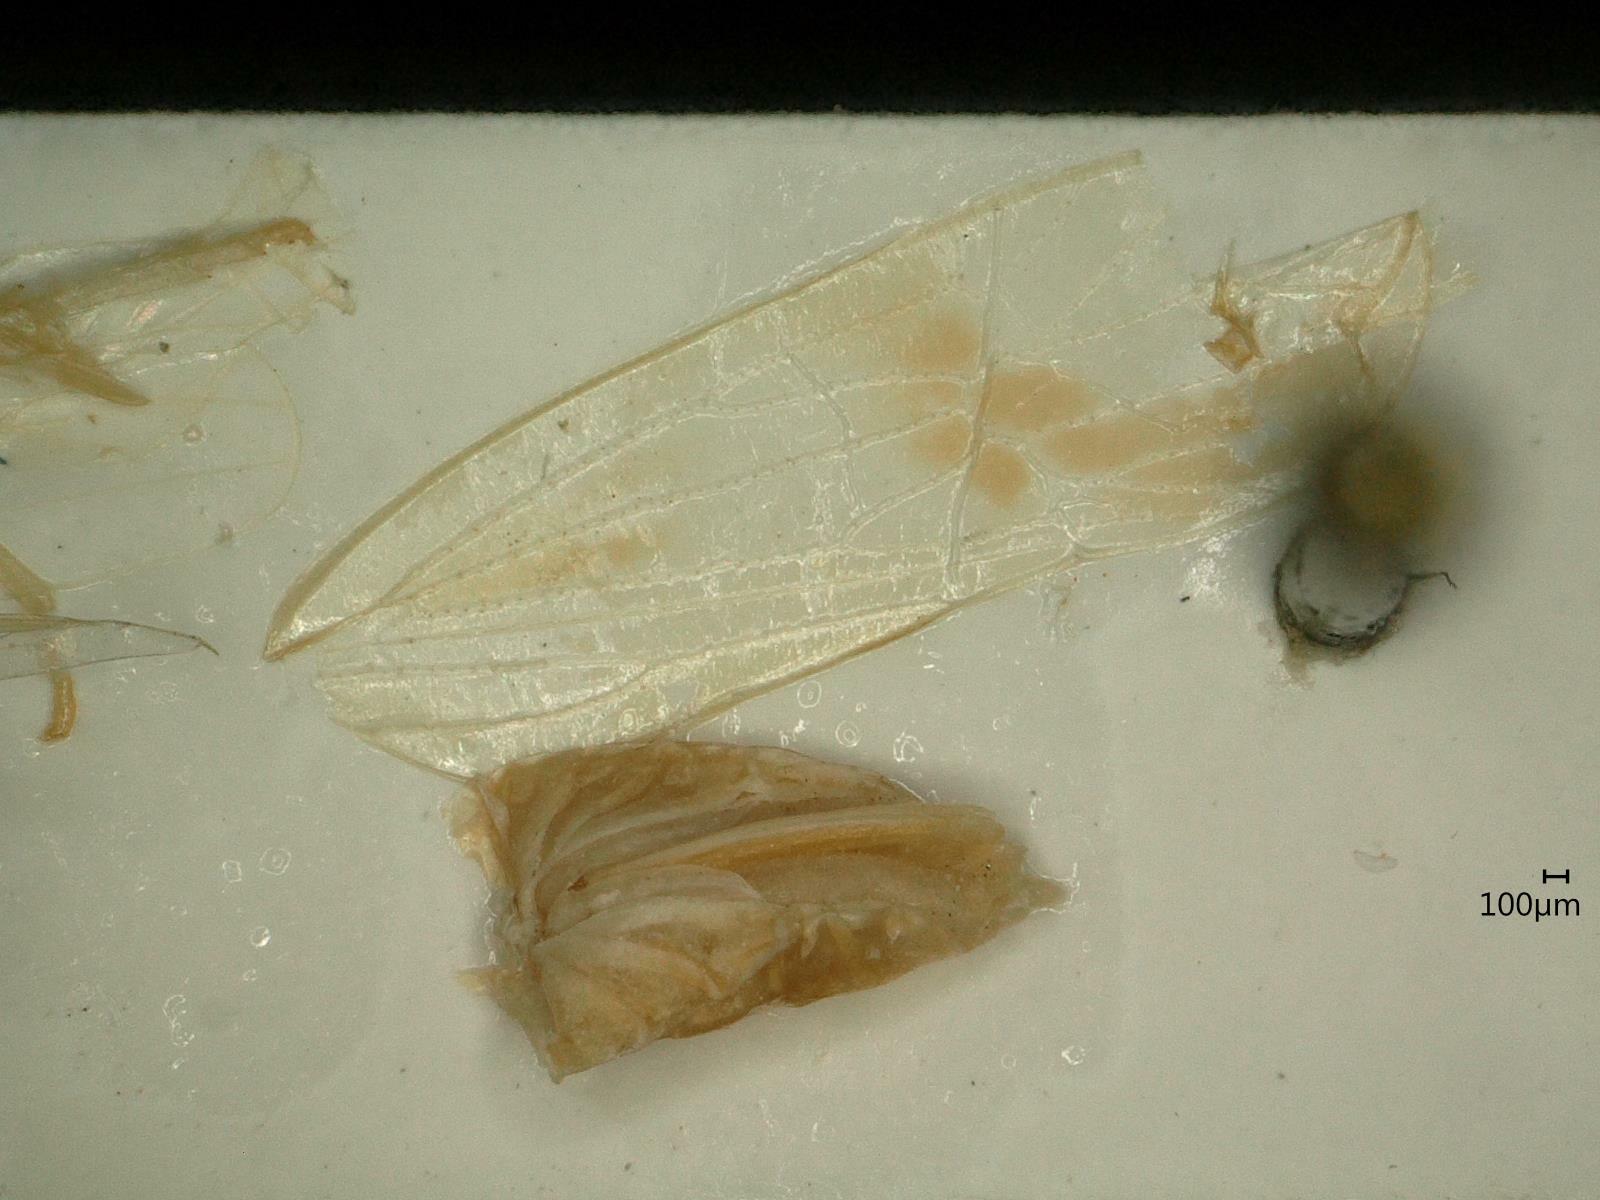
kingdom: Animalia
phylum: Arthropoda
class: Insecta
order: Hemiptera
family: Delphacidae
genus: Euides
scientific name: Euides basilinea
